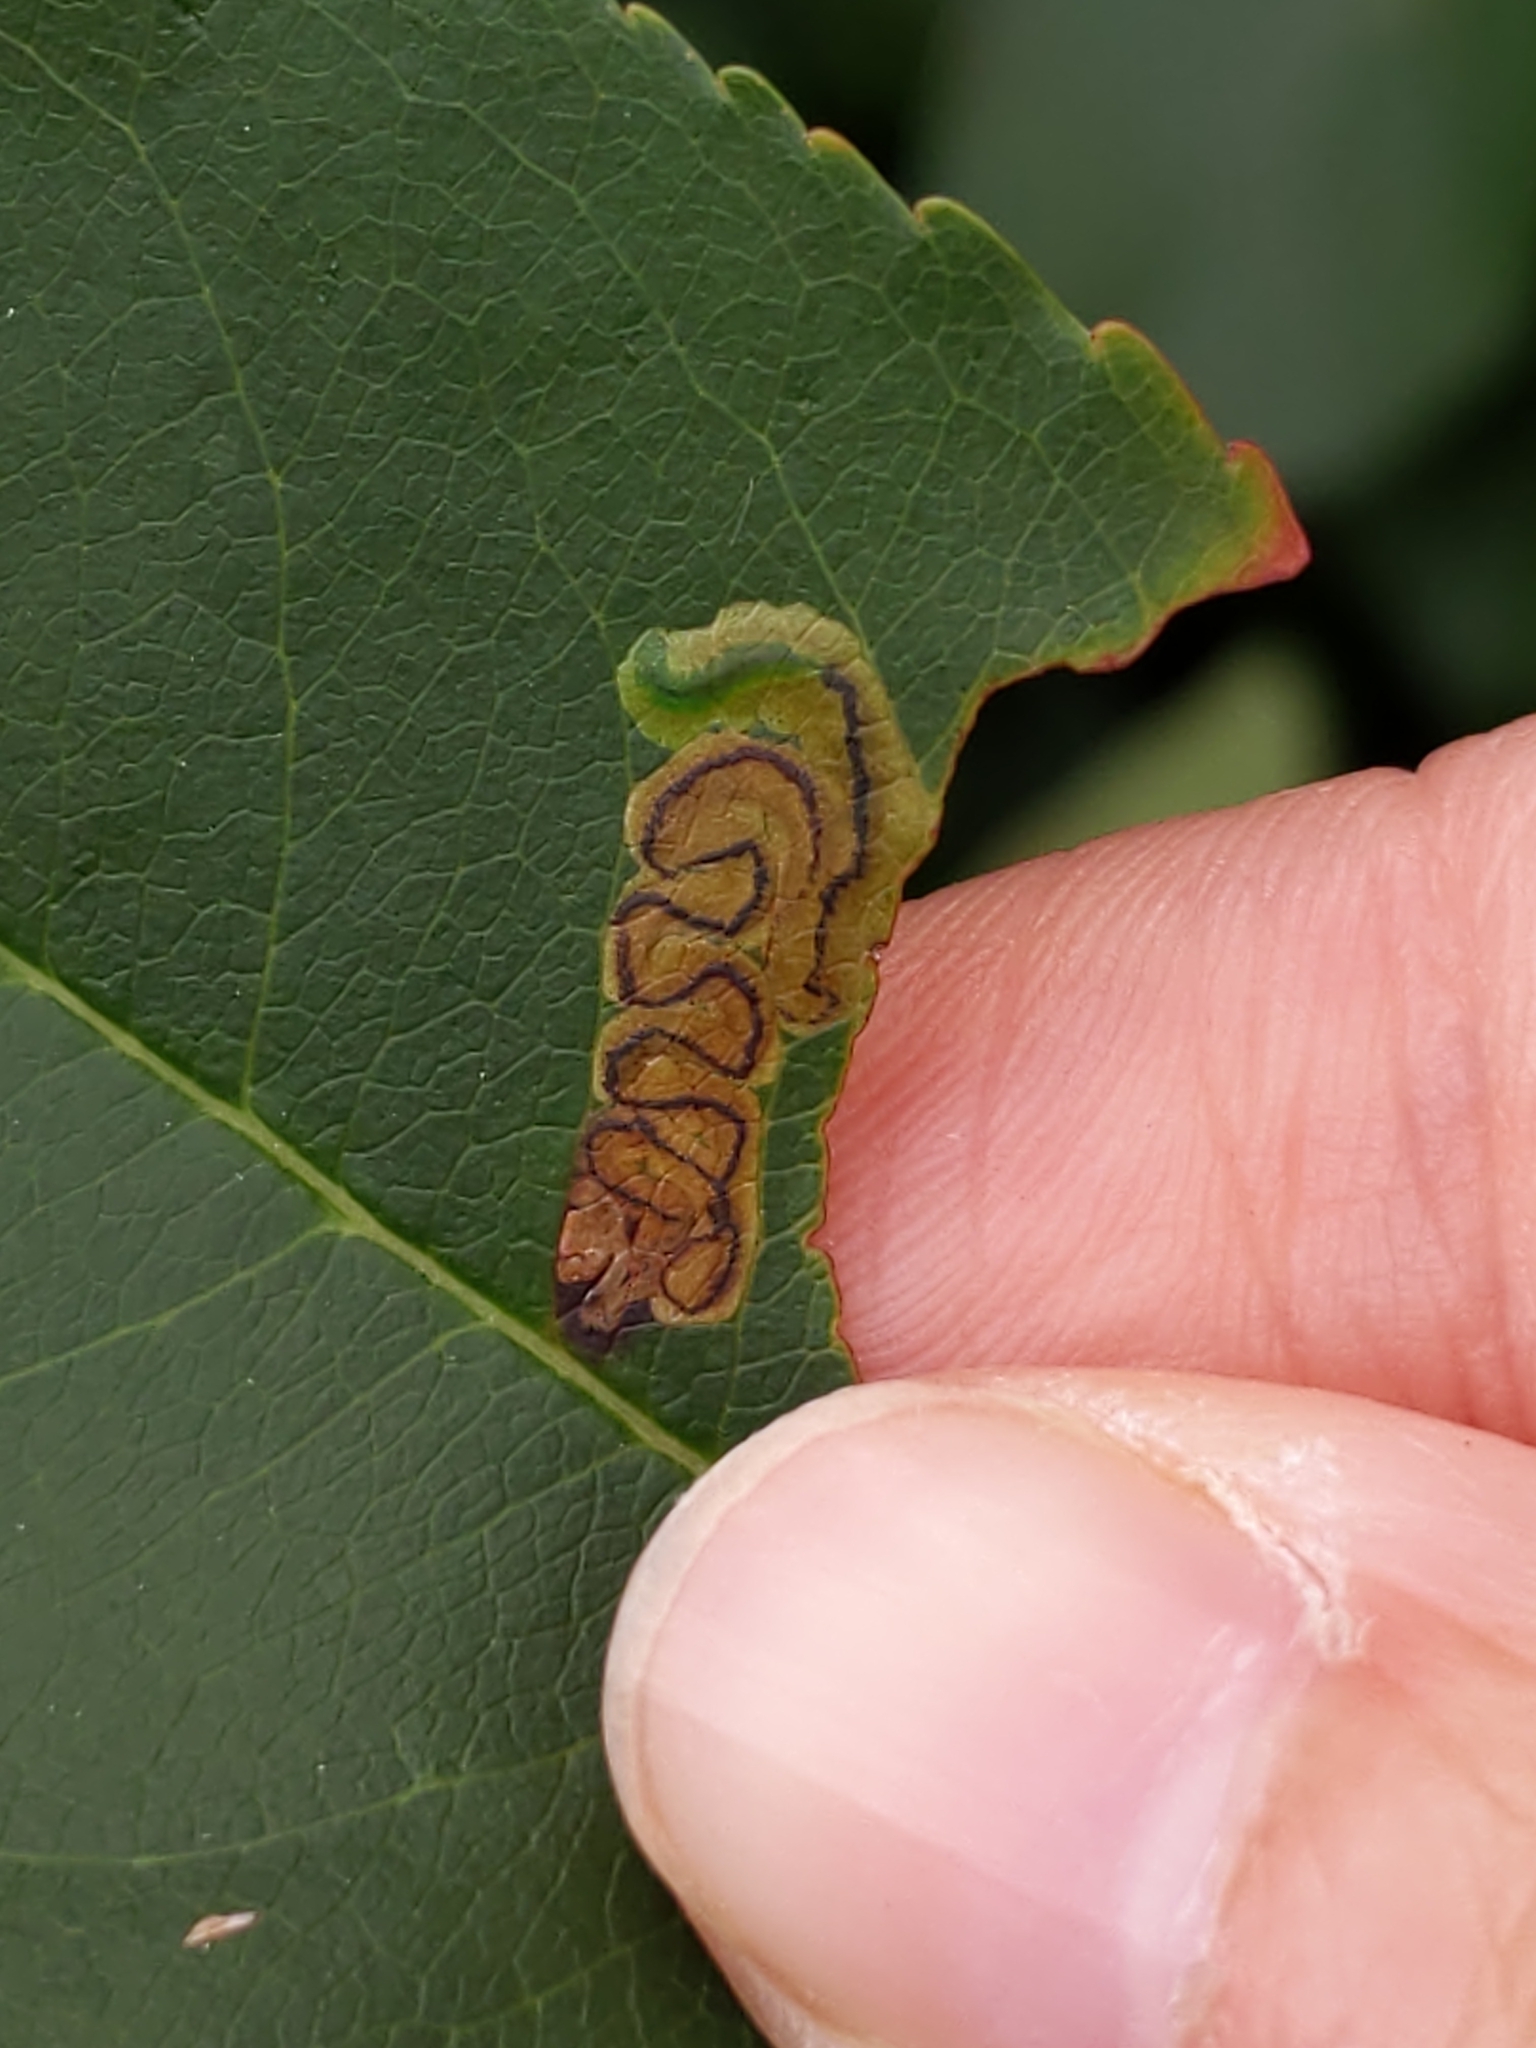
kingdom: Animalia
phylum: Arthropoda
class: Insecta
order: Lepidoptera
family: Nepticulidae
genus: Stigmella
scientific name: Stigmella prunifoliella
